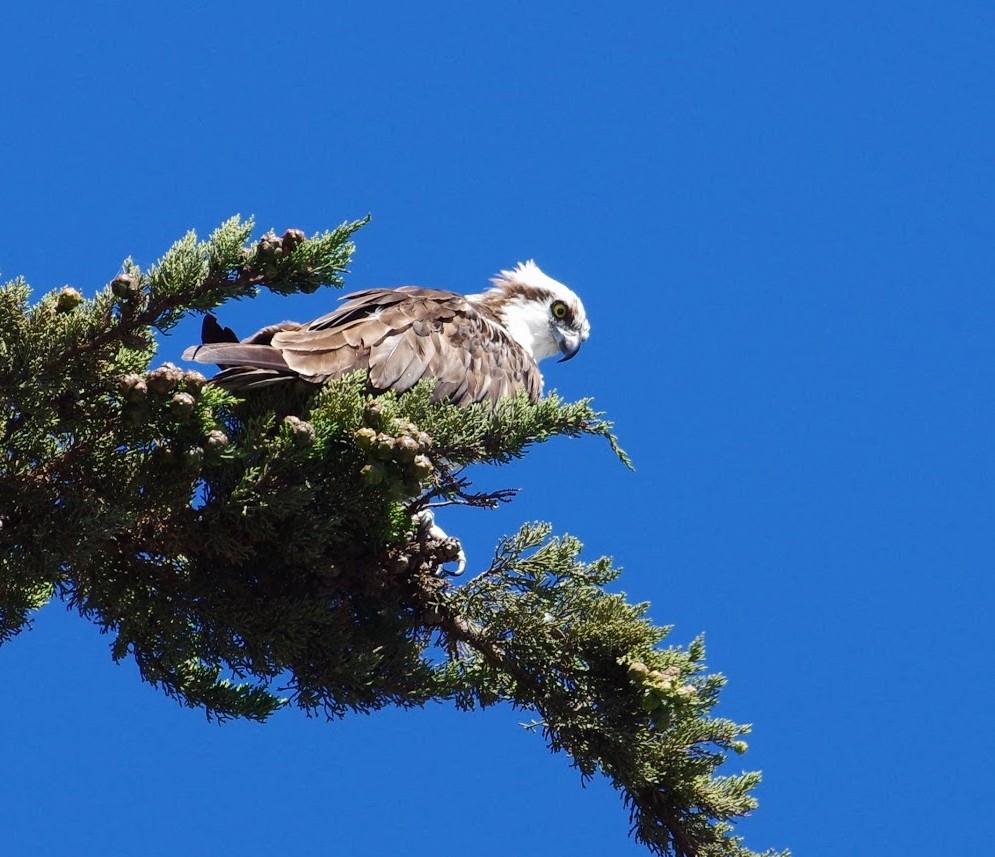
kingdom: Animalia
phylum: Chordata
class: Aves
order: Accipitriformes
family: Pandionidae
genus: Pandion
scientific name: Pandion haliaetus
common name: Osprey
